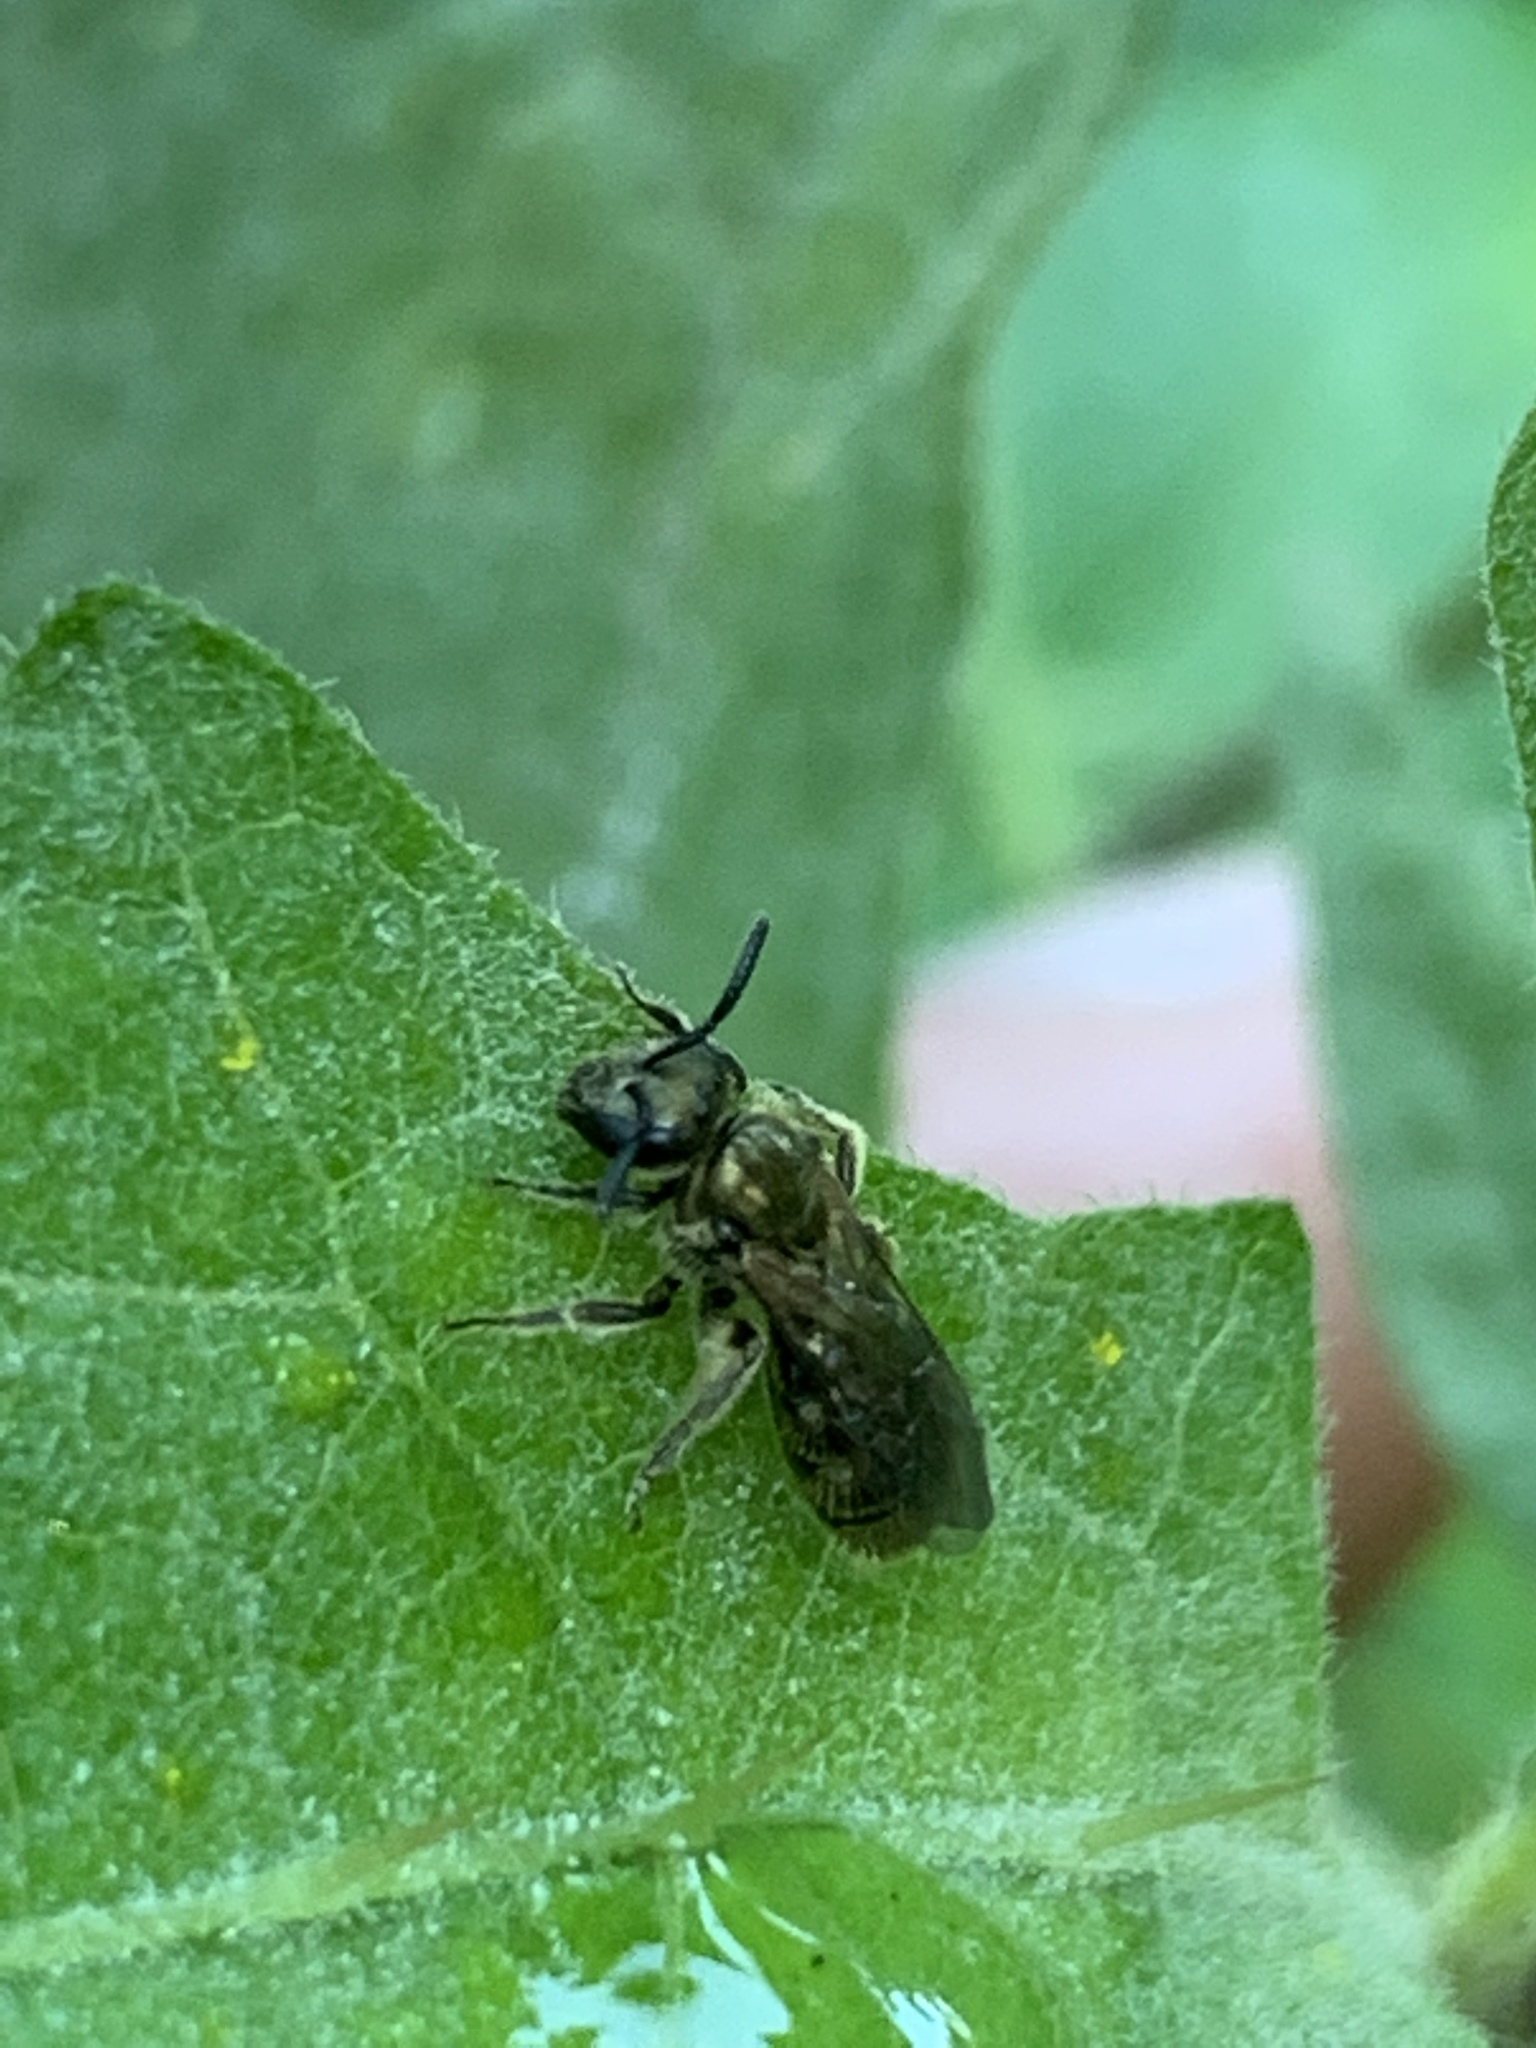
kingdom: Animalia
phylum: Arthropoda
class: Insecta
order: Hymenoptera
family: Halictidae
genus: Dialictus
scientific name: Dialictus
